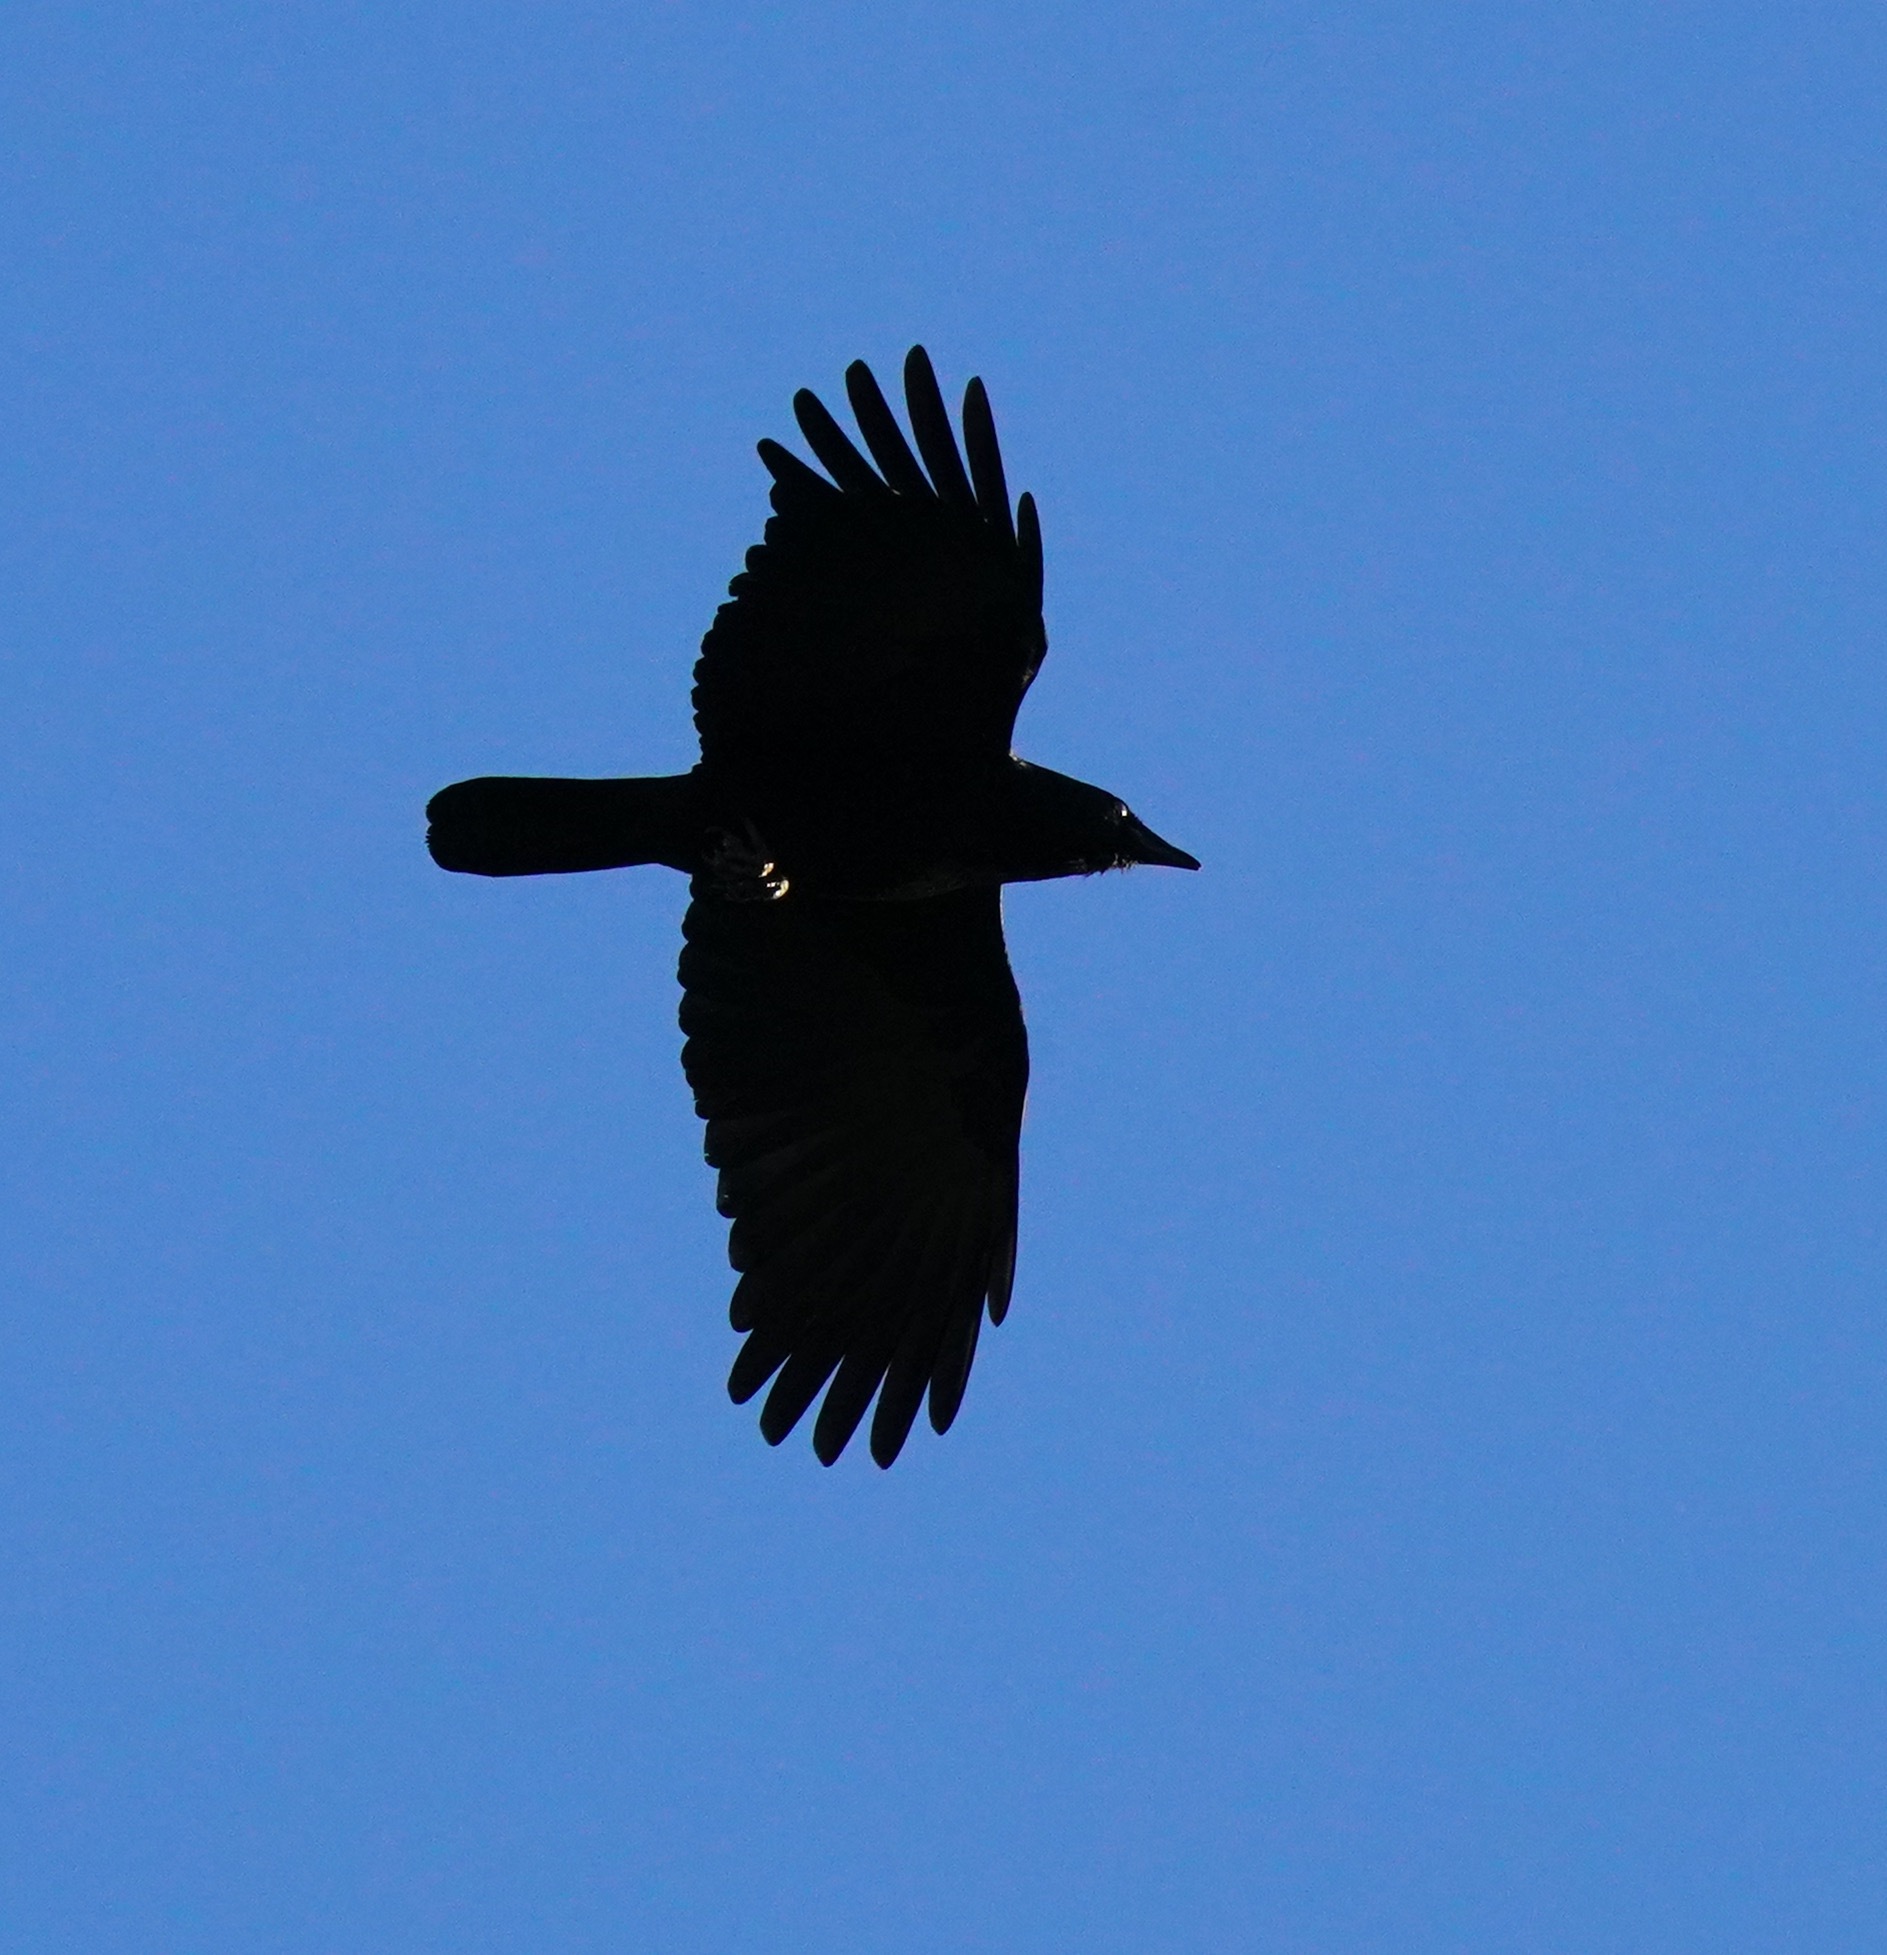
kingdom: Animalia
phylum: Chordata
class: Aves
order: Passeriformes
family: Corvidae
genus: Corvus
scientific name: Corvus brachyrhynchos
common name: American crow
